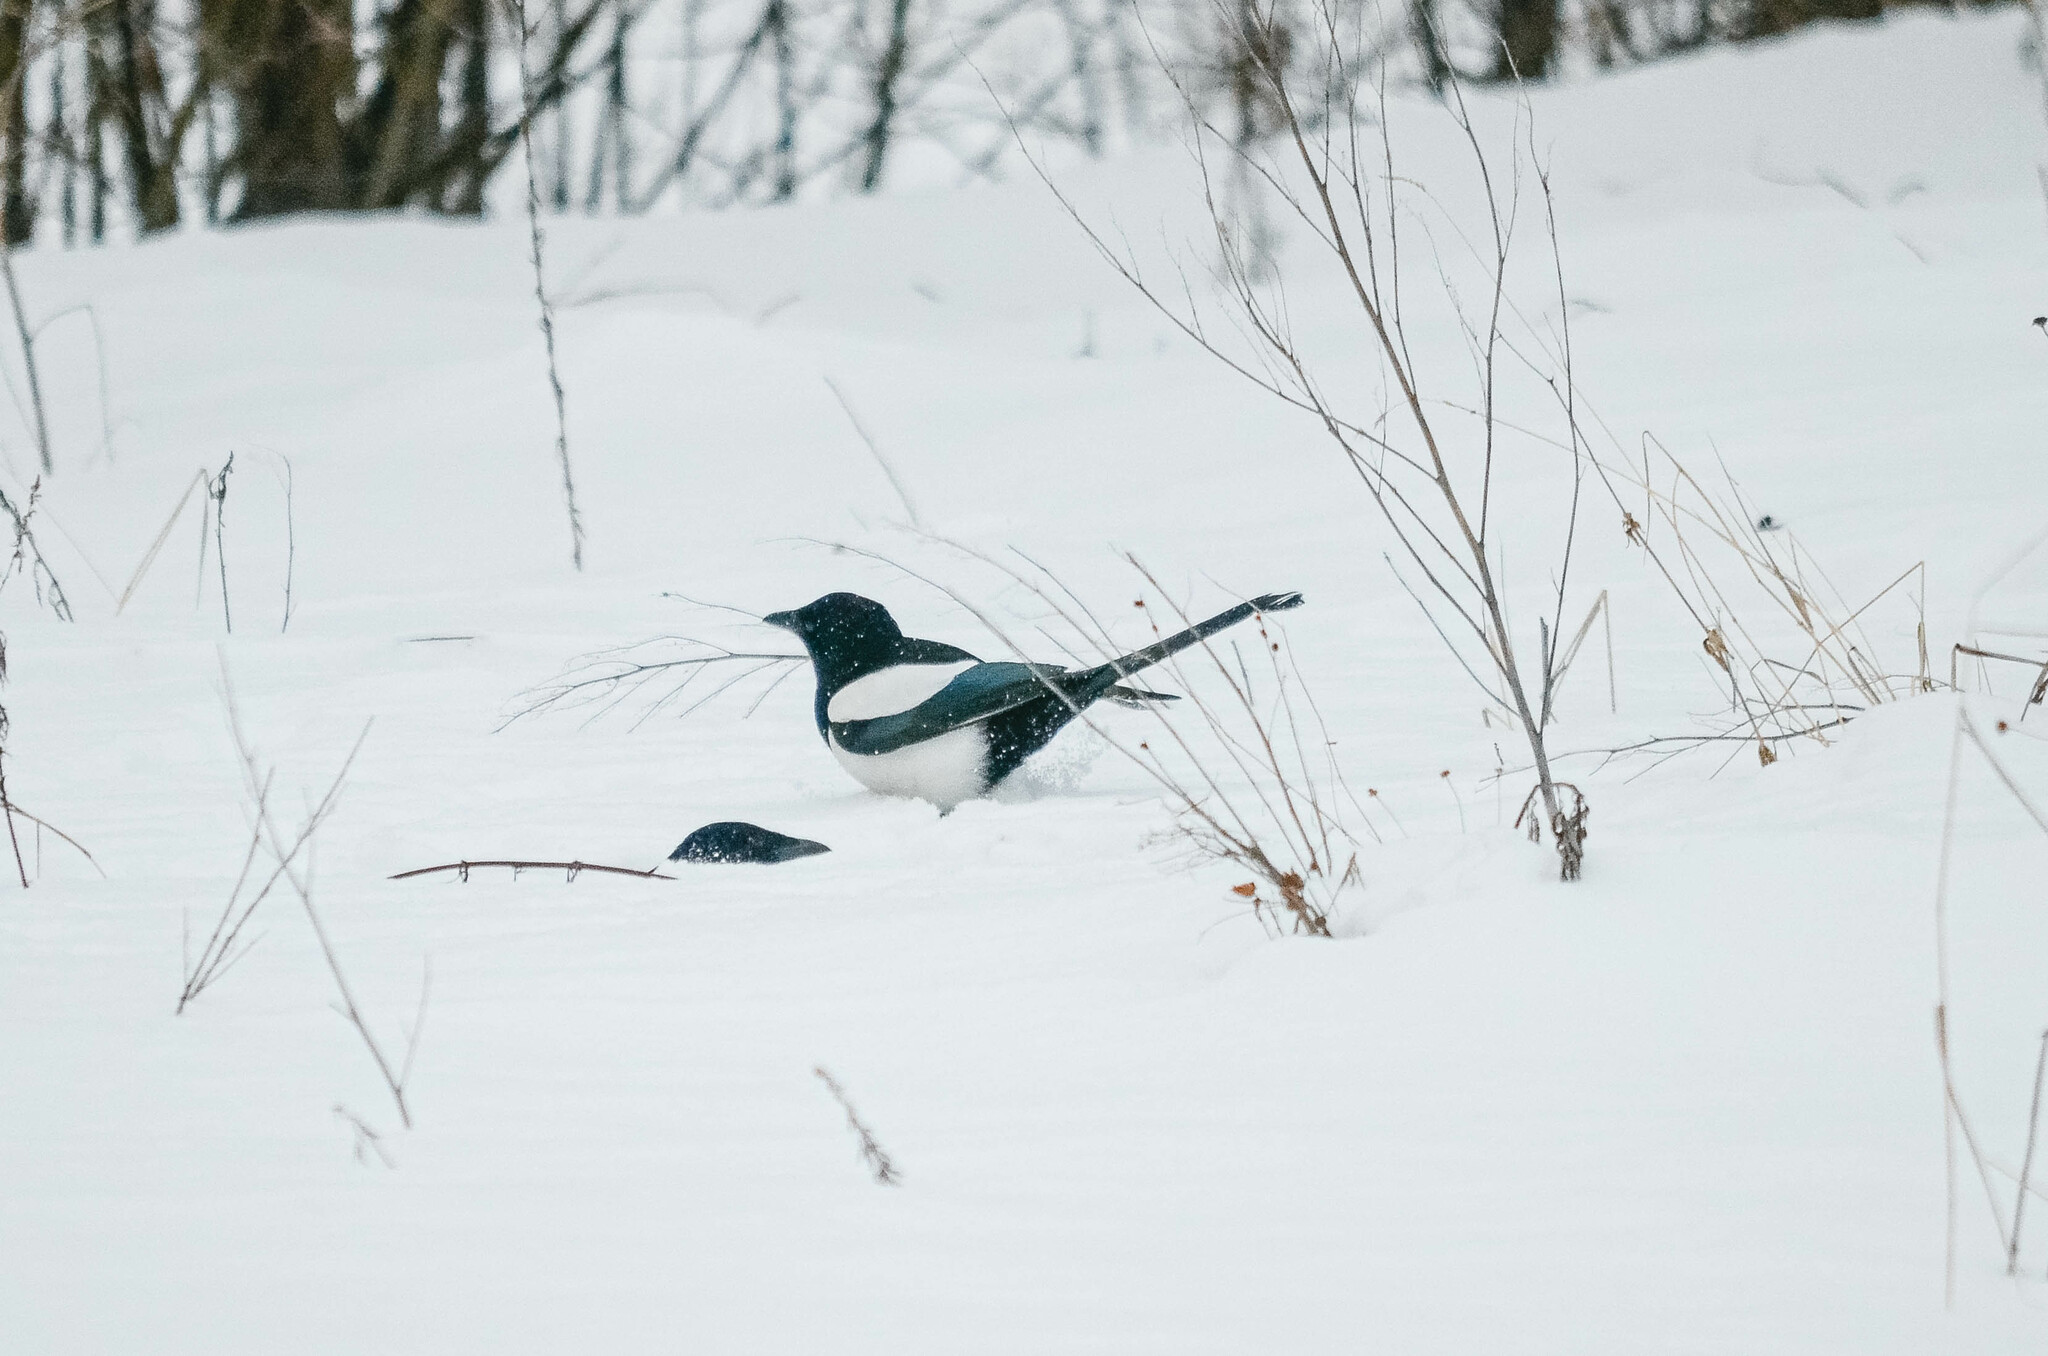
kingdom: Animalia
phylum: Chordata
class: Aves
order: Passeriformes
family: Corvidae
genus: Pica
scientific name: Pica pica
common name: Eurasian magpie
